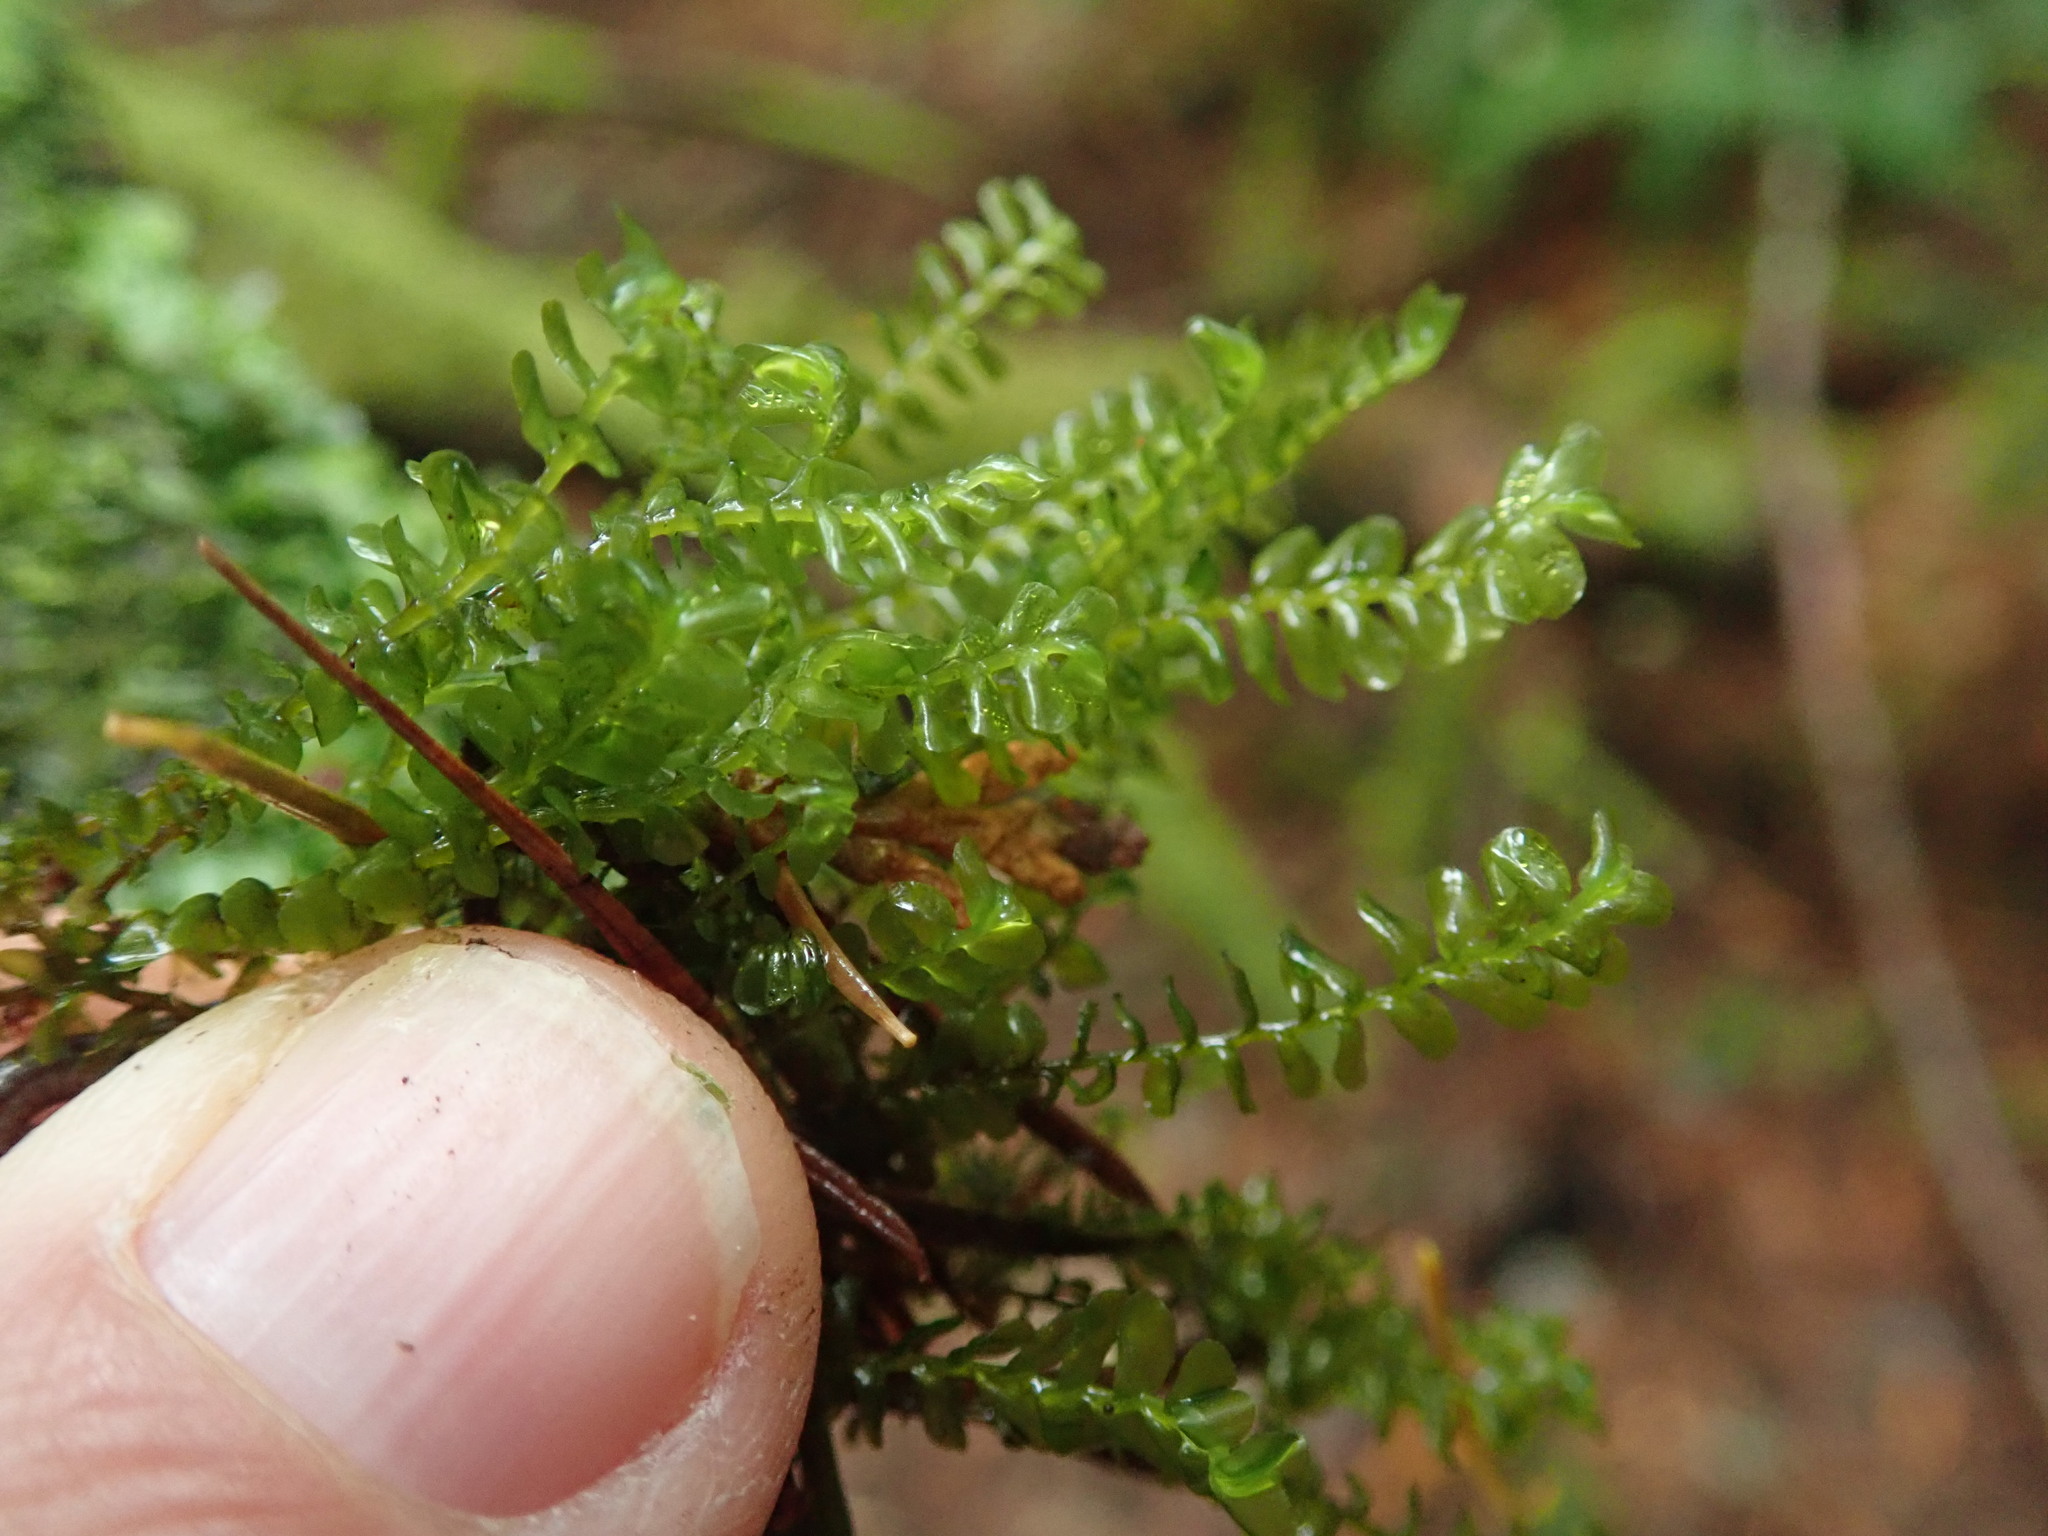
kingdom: Plantae
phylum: Marchantiophyta
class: Jungermanniopsida
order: Jungermanniales
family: Plagiochilaceae
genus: Plagiochila
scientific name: Plagiochila porelloides
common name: Lesser featherwort
